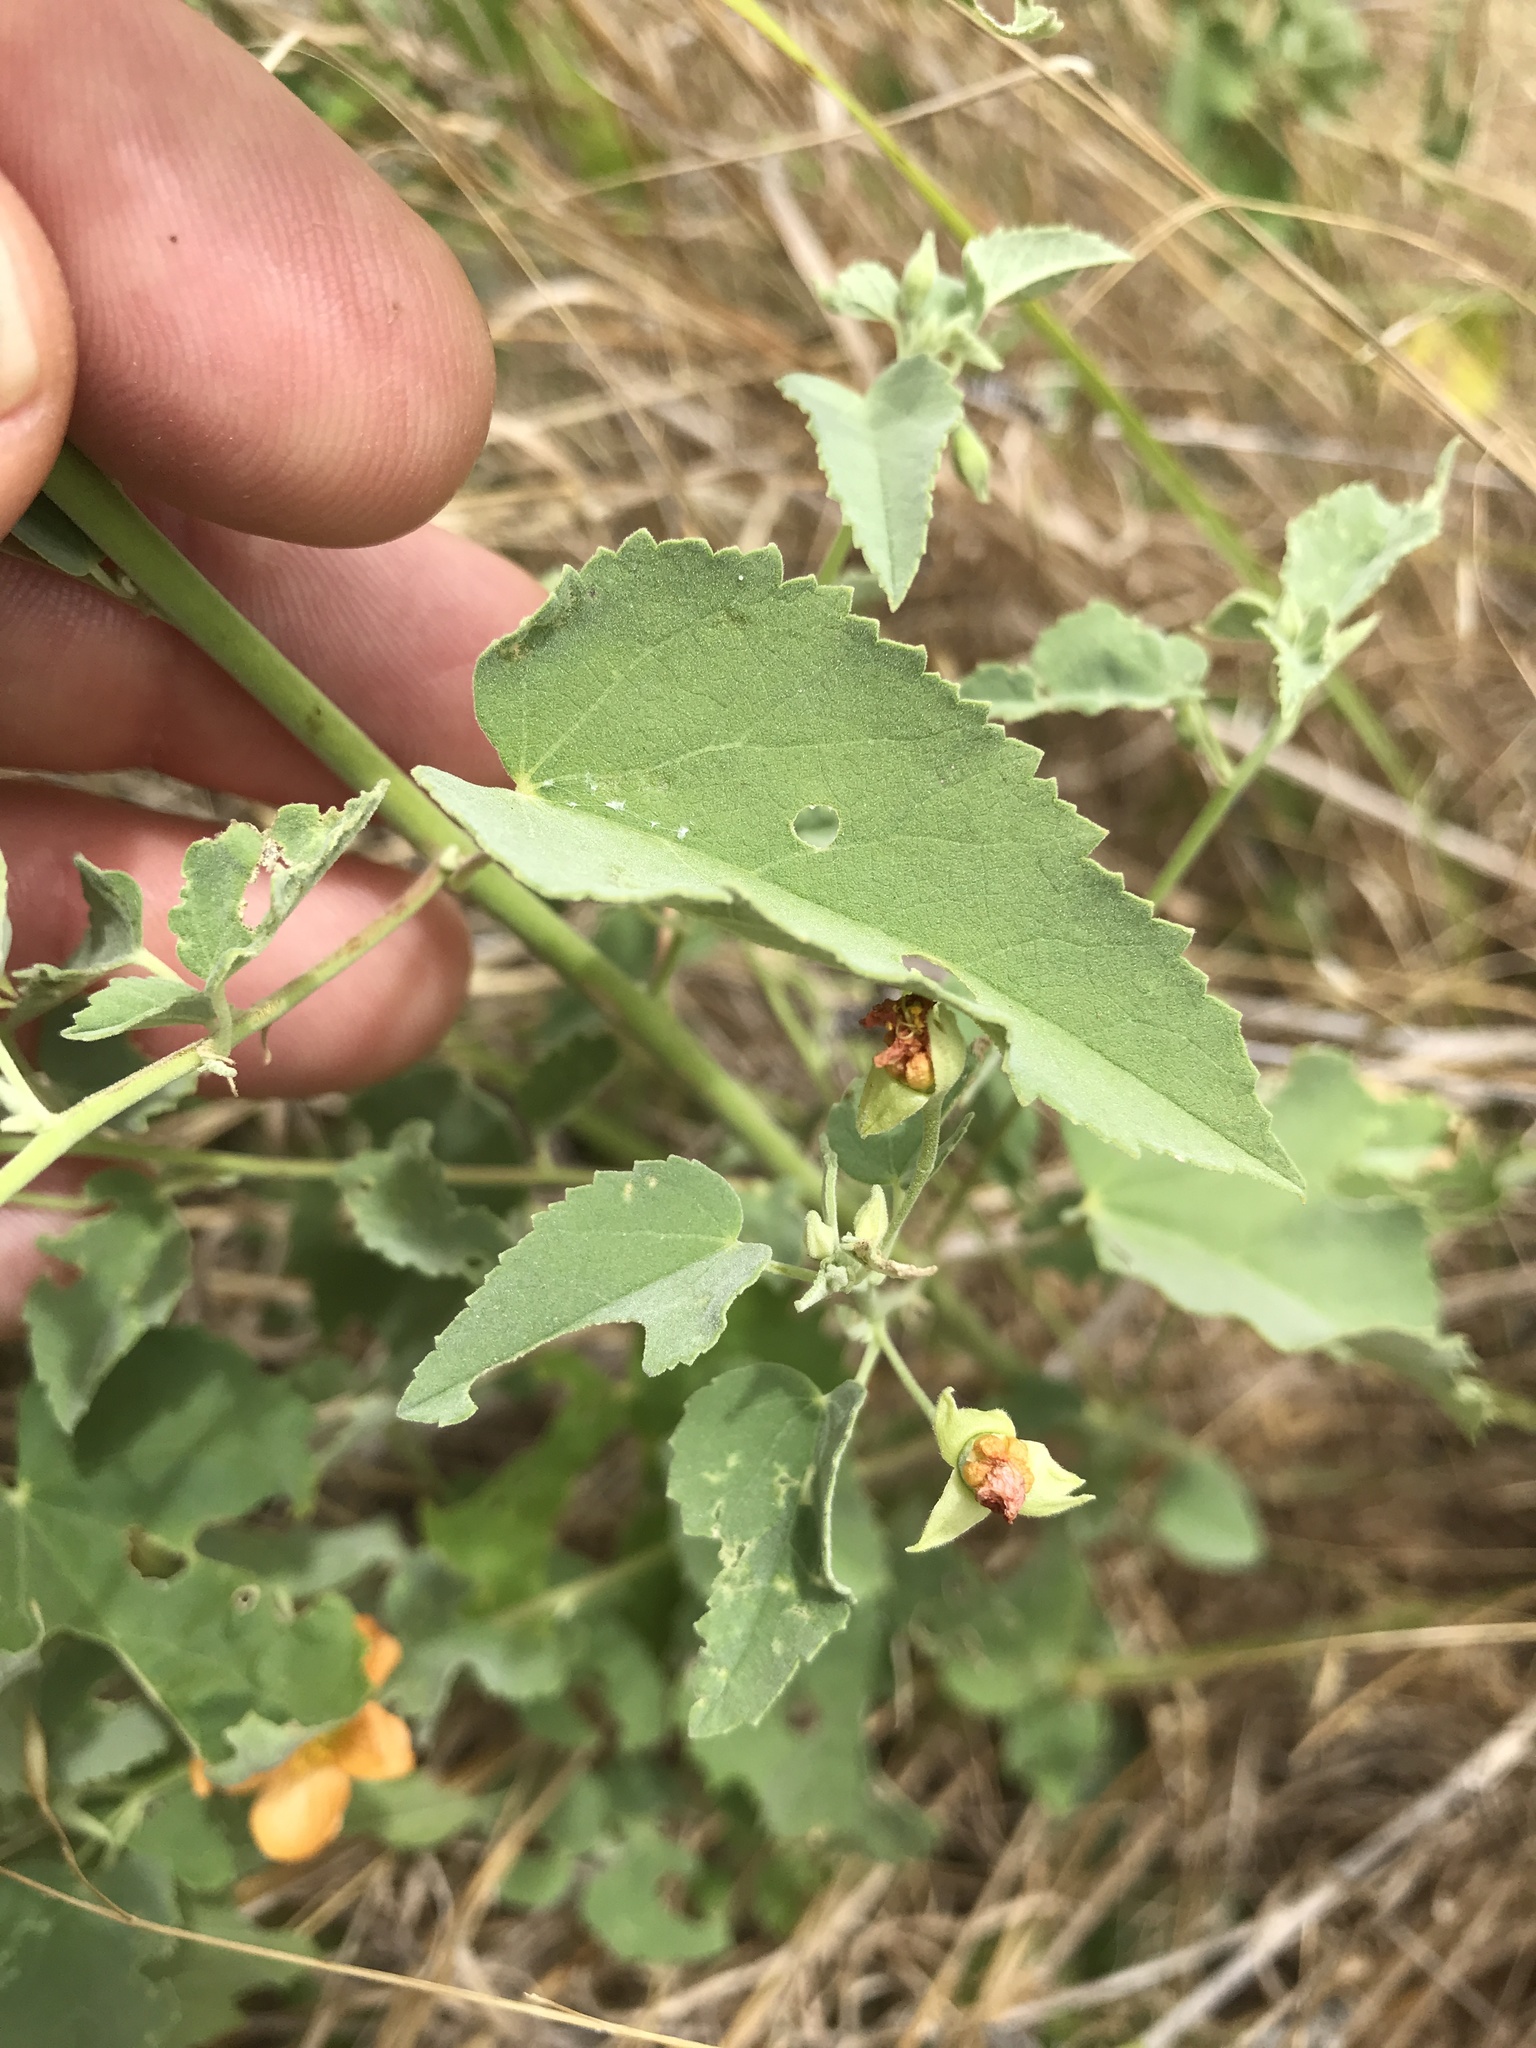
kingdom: Plantae
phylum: Tracheophyta
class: Magnoliopsida
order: Malvales
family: Malvaceae
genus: Abutilon
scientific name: Abutilon fruticosum
